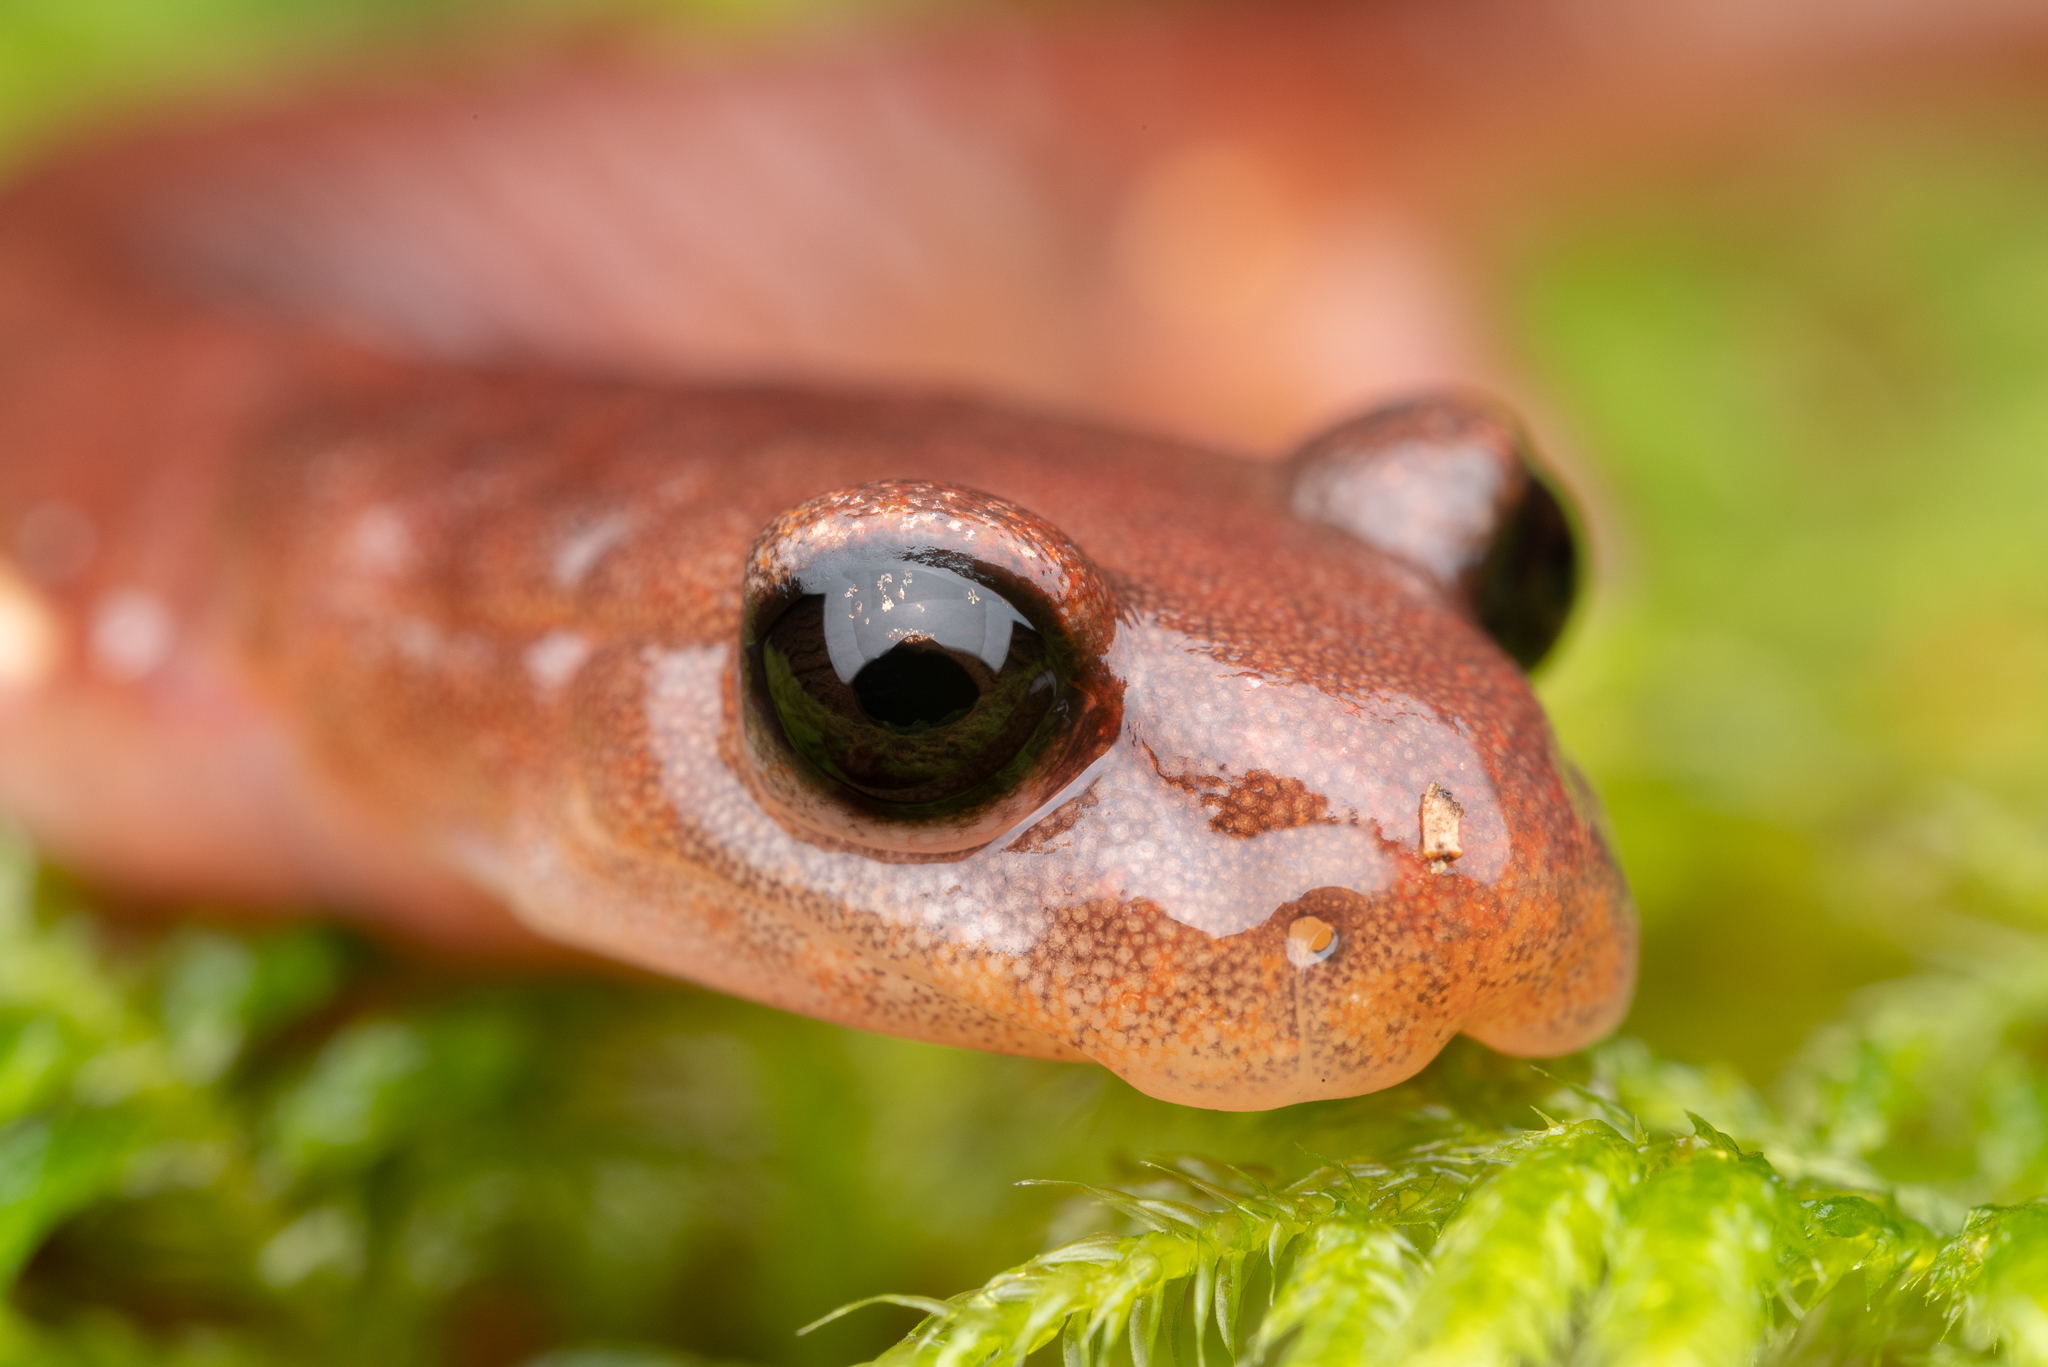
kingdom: Animalia
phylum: Chordata
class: Amphibia
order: Caudata
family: Plethodontidae
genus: Ensatina
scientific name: Ensatina eschscholtzii
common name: Ensatina
